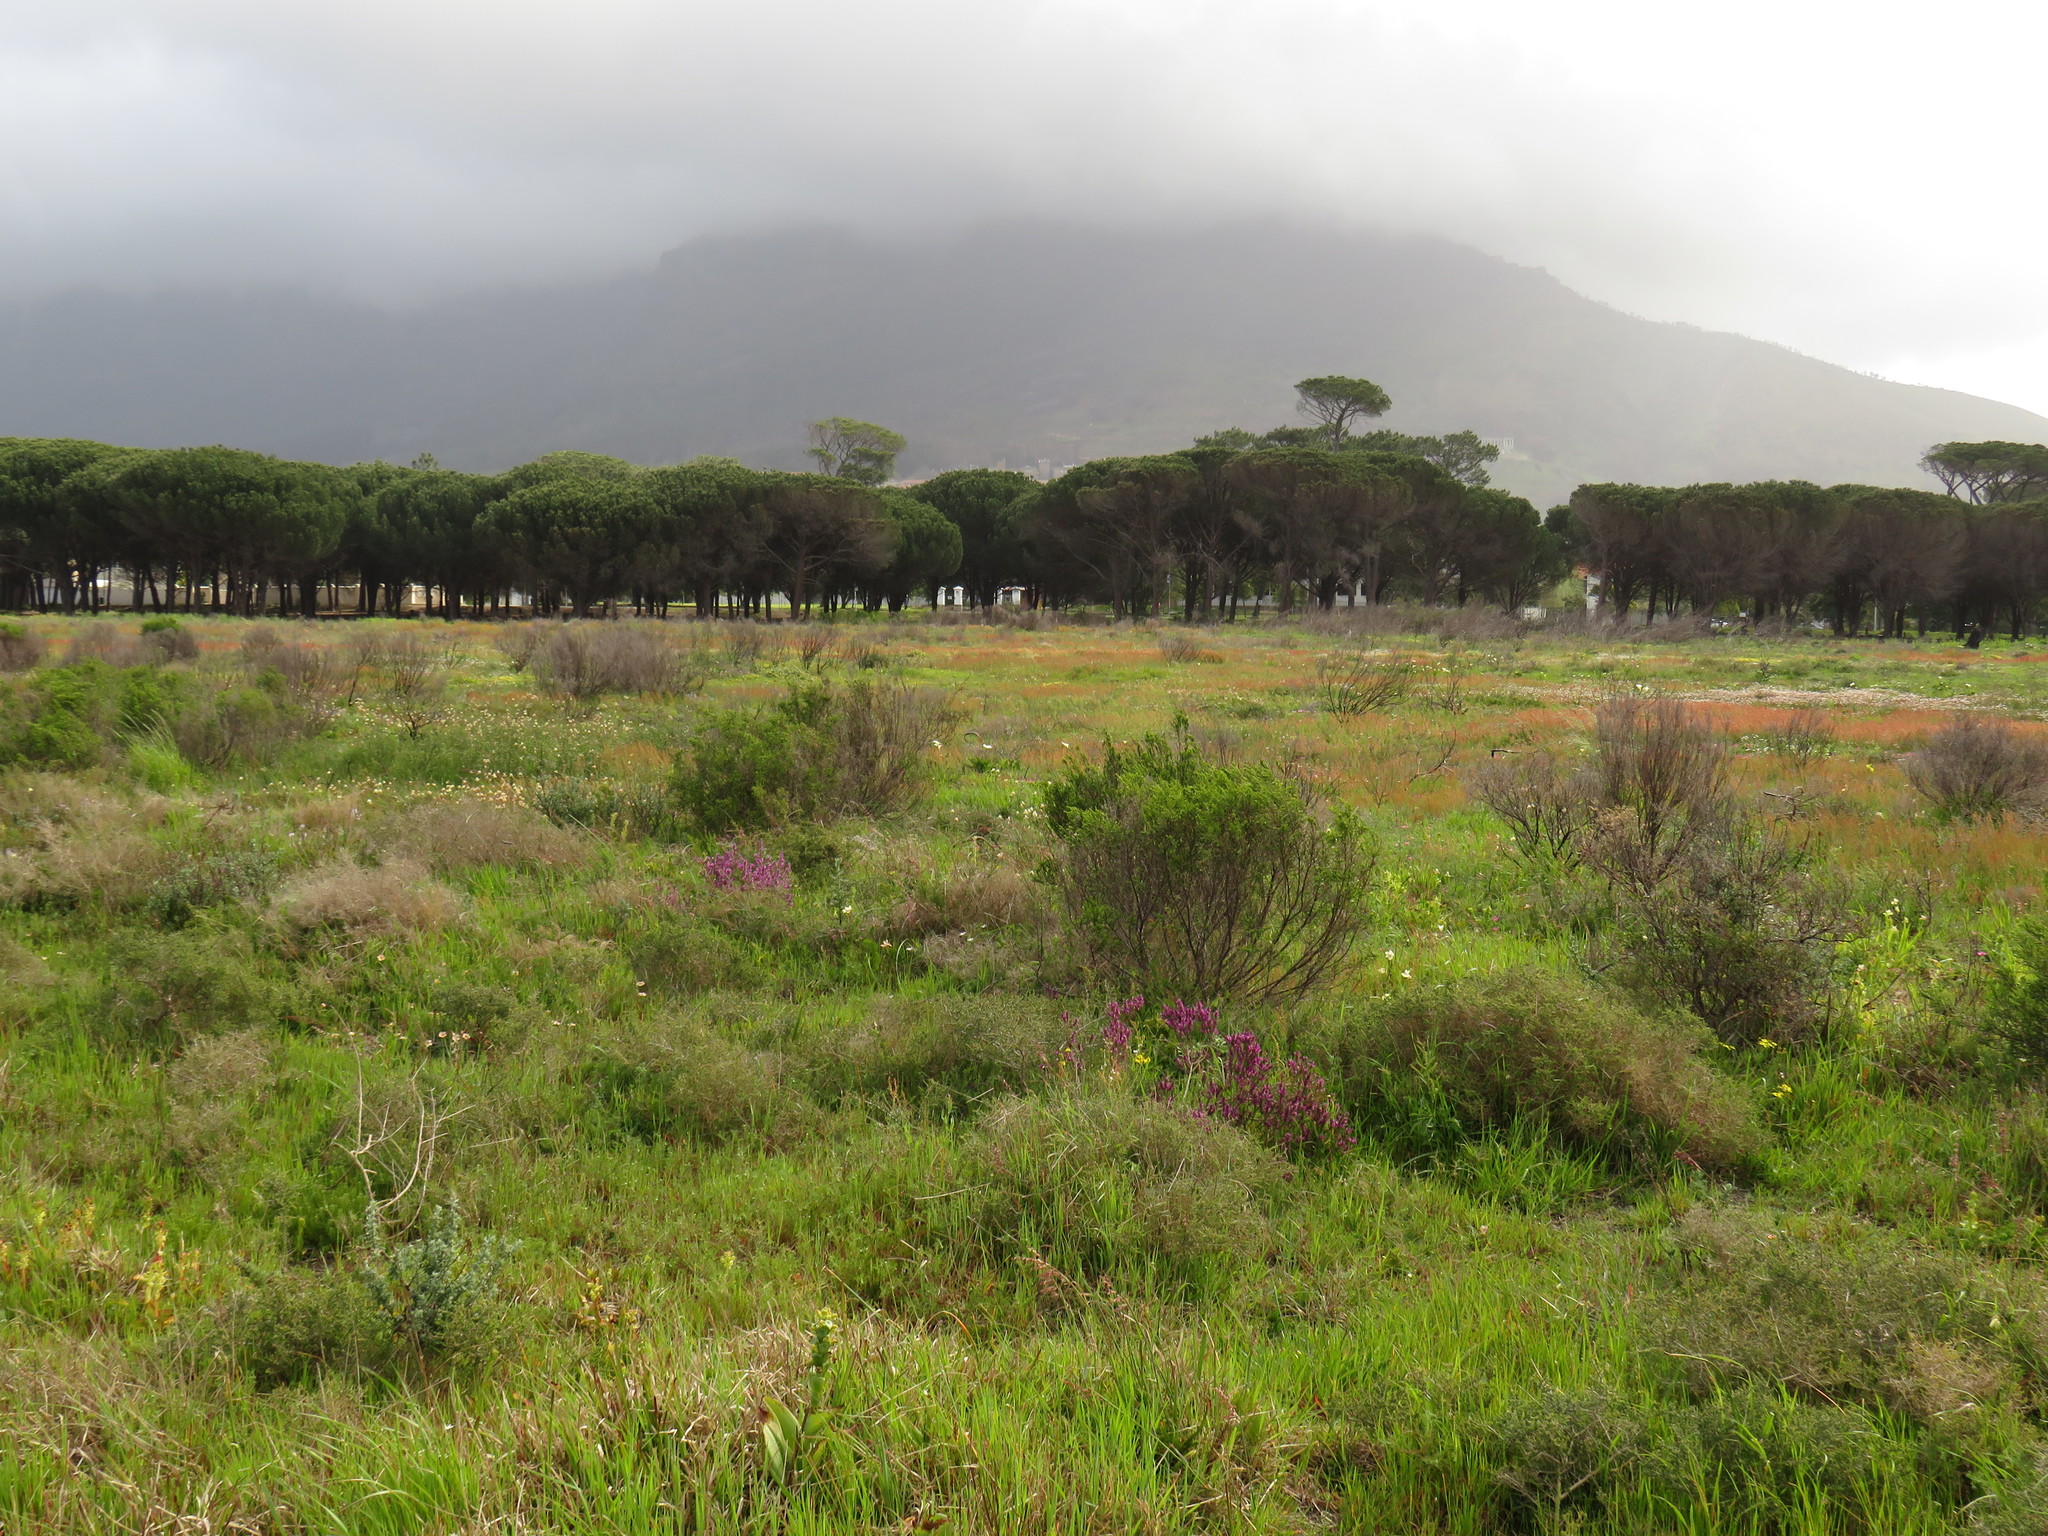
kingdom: Plantae
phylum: Tracheophyta
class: Magnoliopsida
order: Fabales
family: Polygalaceae
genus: Muraltia
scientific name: Muraltia macropetala
